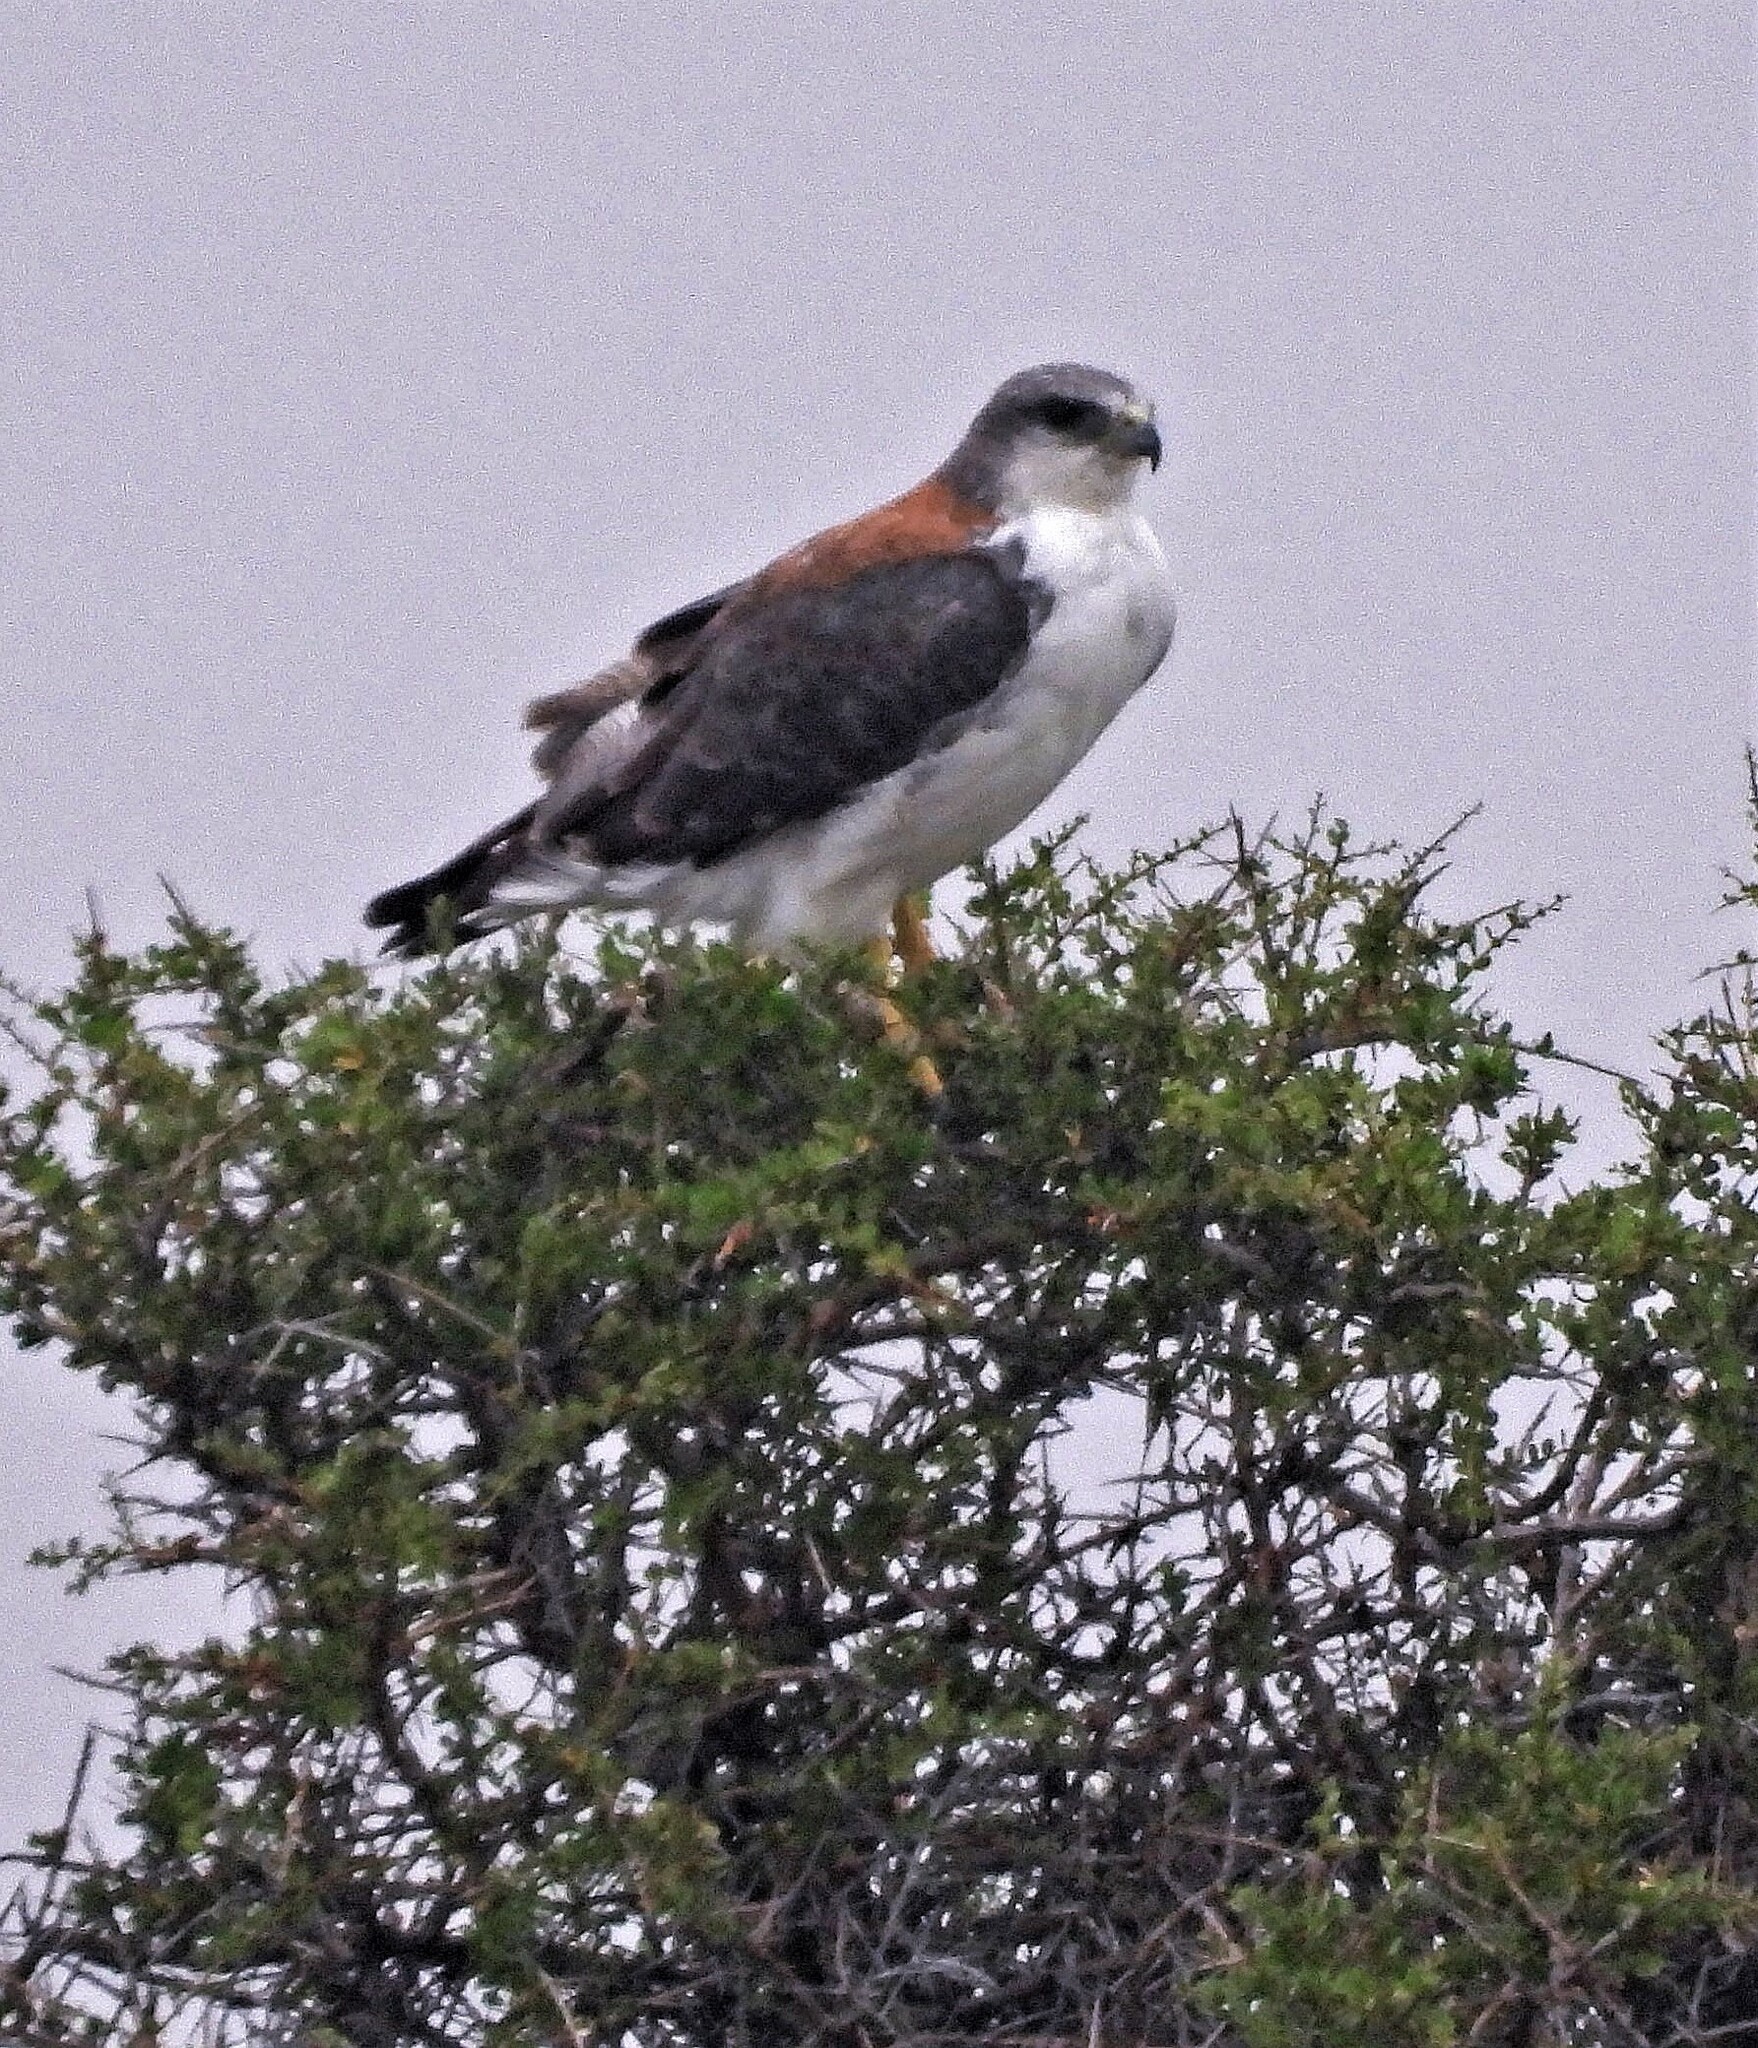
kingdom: Animalia
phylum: Chordata
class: Aves
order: Accipitriformes
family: Accipitridae
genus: Buteo
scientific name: Buteo polyosoma
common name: Variable hawk
